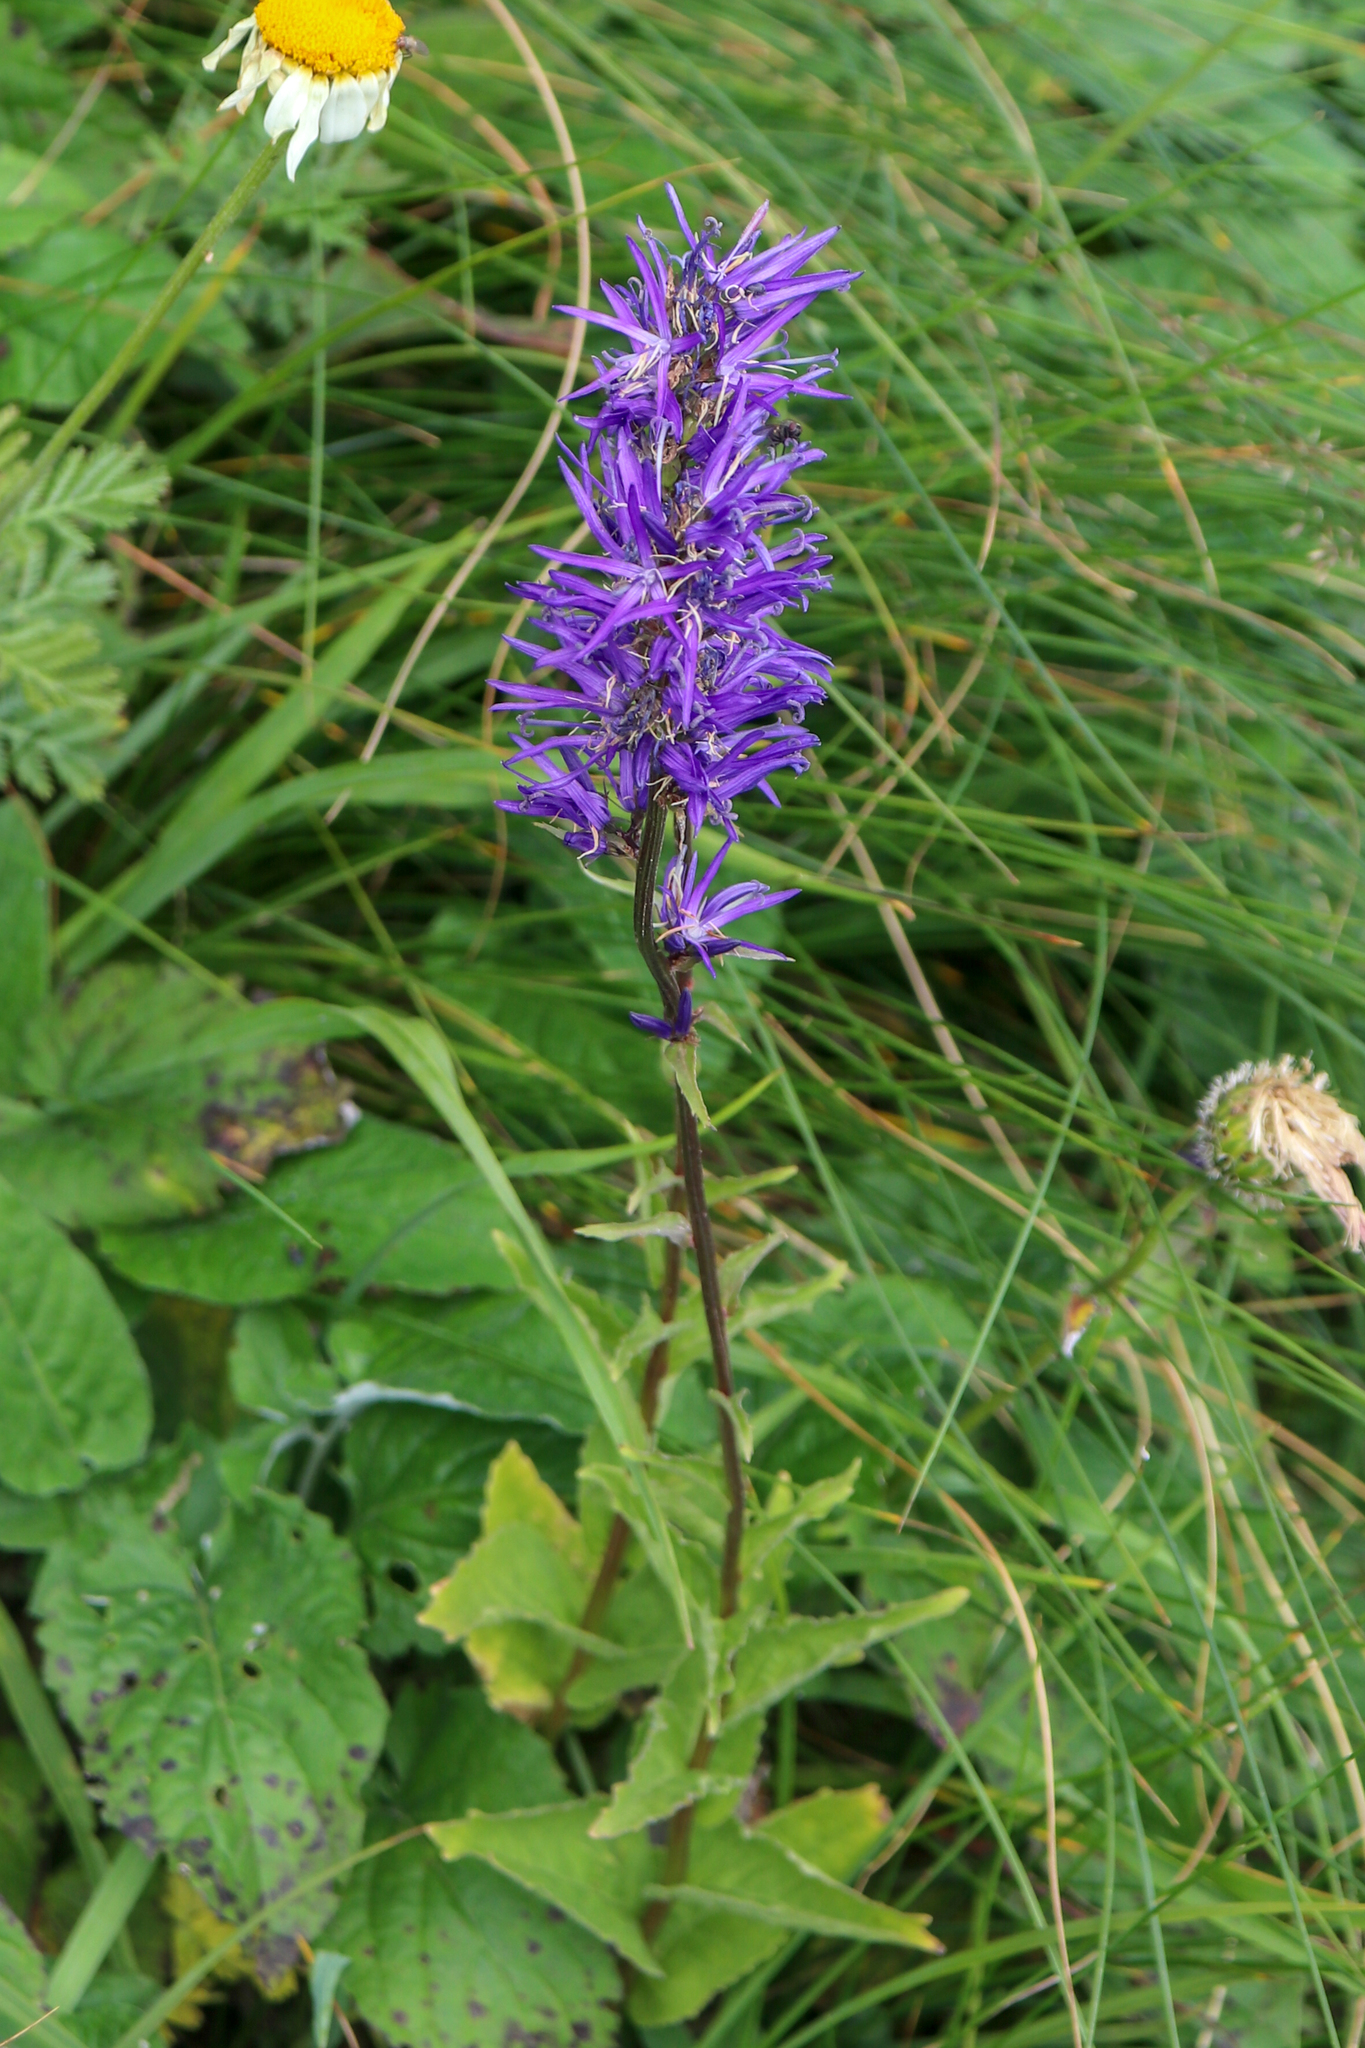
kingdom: Plantae
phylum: Tracheophyta
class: Magnoliopsida
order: Asterales
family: Campanulaceae
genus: Asyneuma
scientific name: Asyneuma campanuloides
